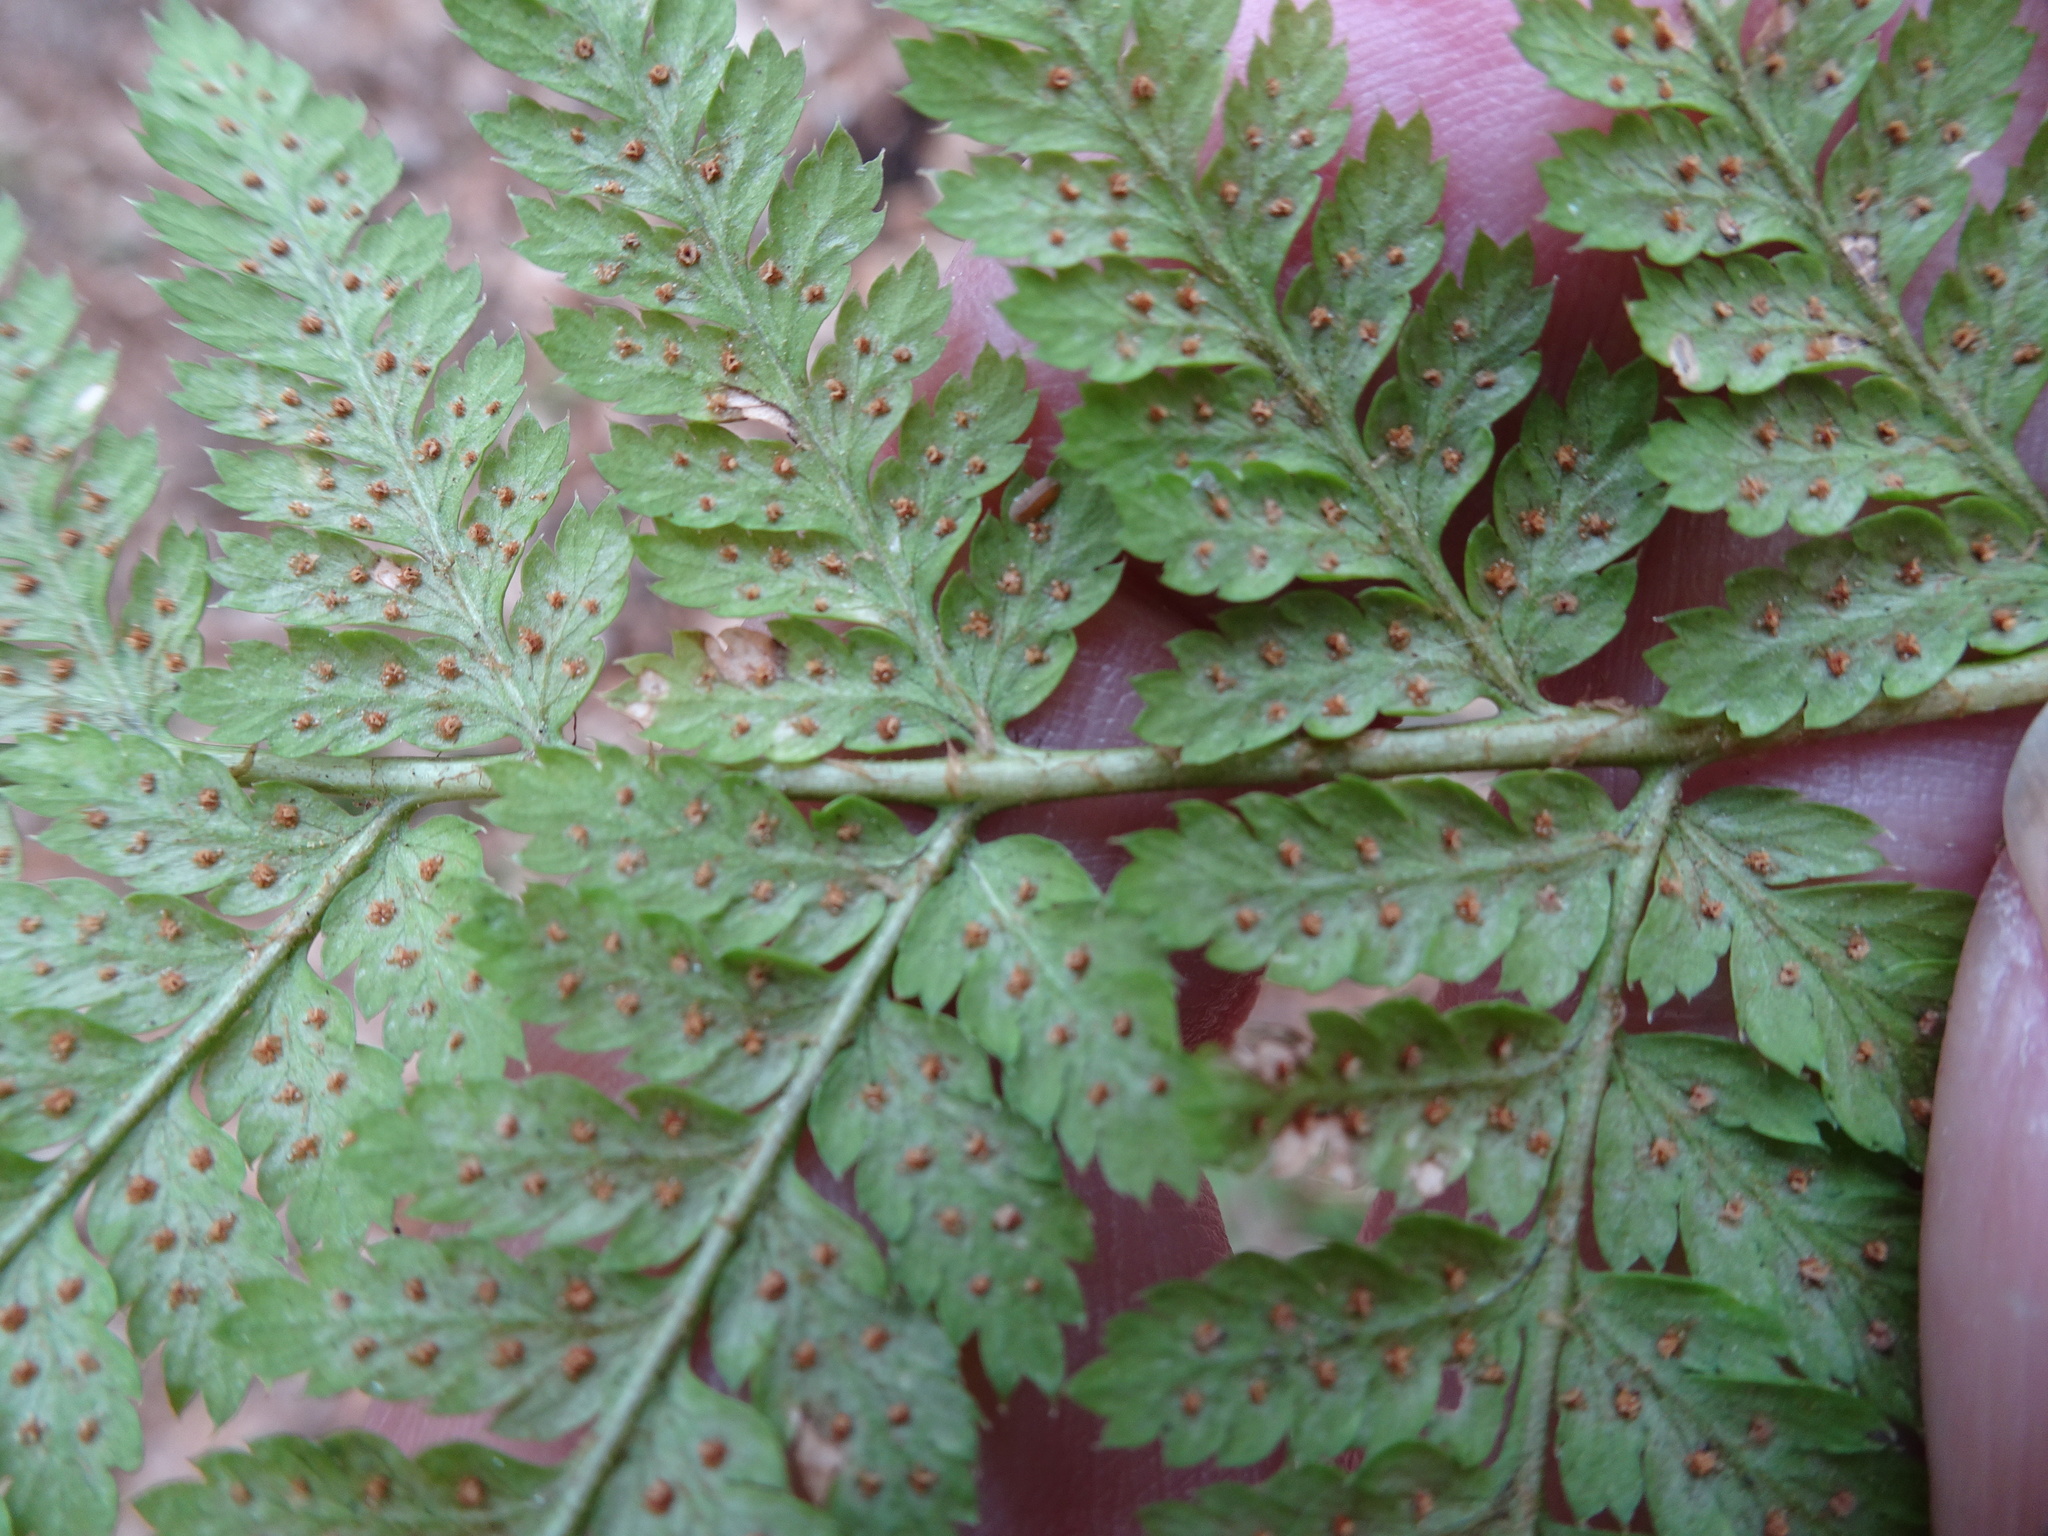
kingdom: Plantae
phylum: Tracheophyta
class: Polypodiopsida
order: Polypodiales
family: Dryopteridaceae
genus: Dryopteris
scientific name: Dryopteris carthusiana
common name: Narrow buckler-fern
